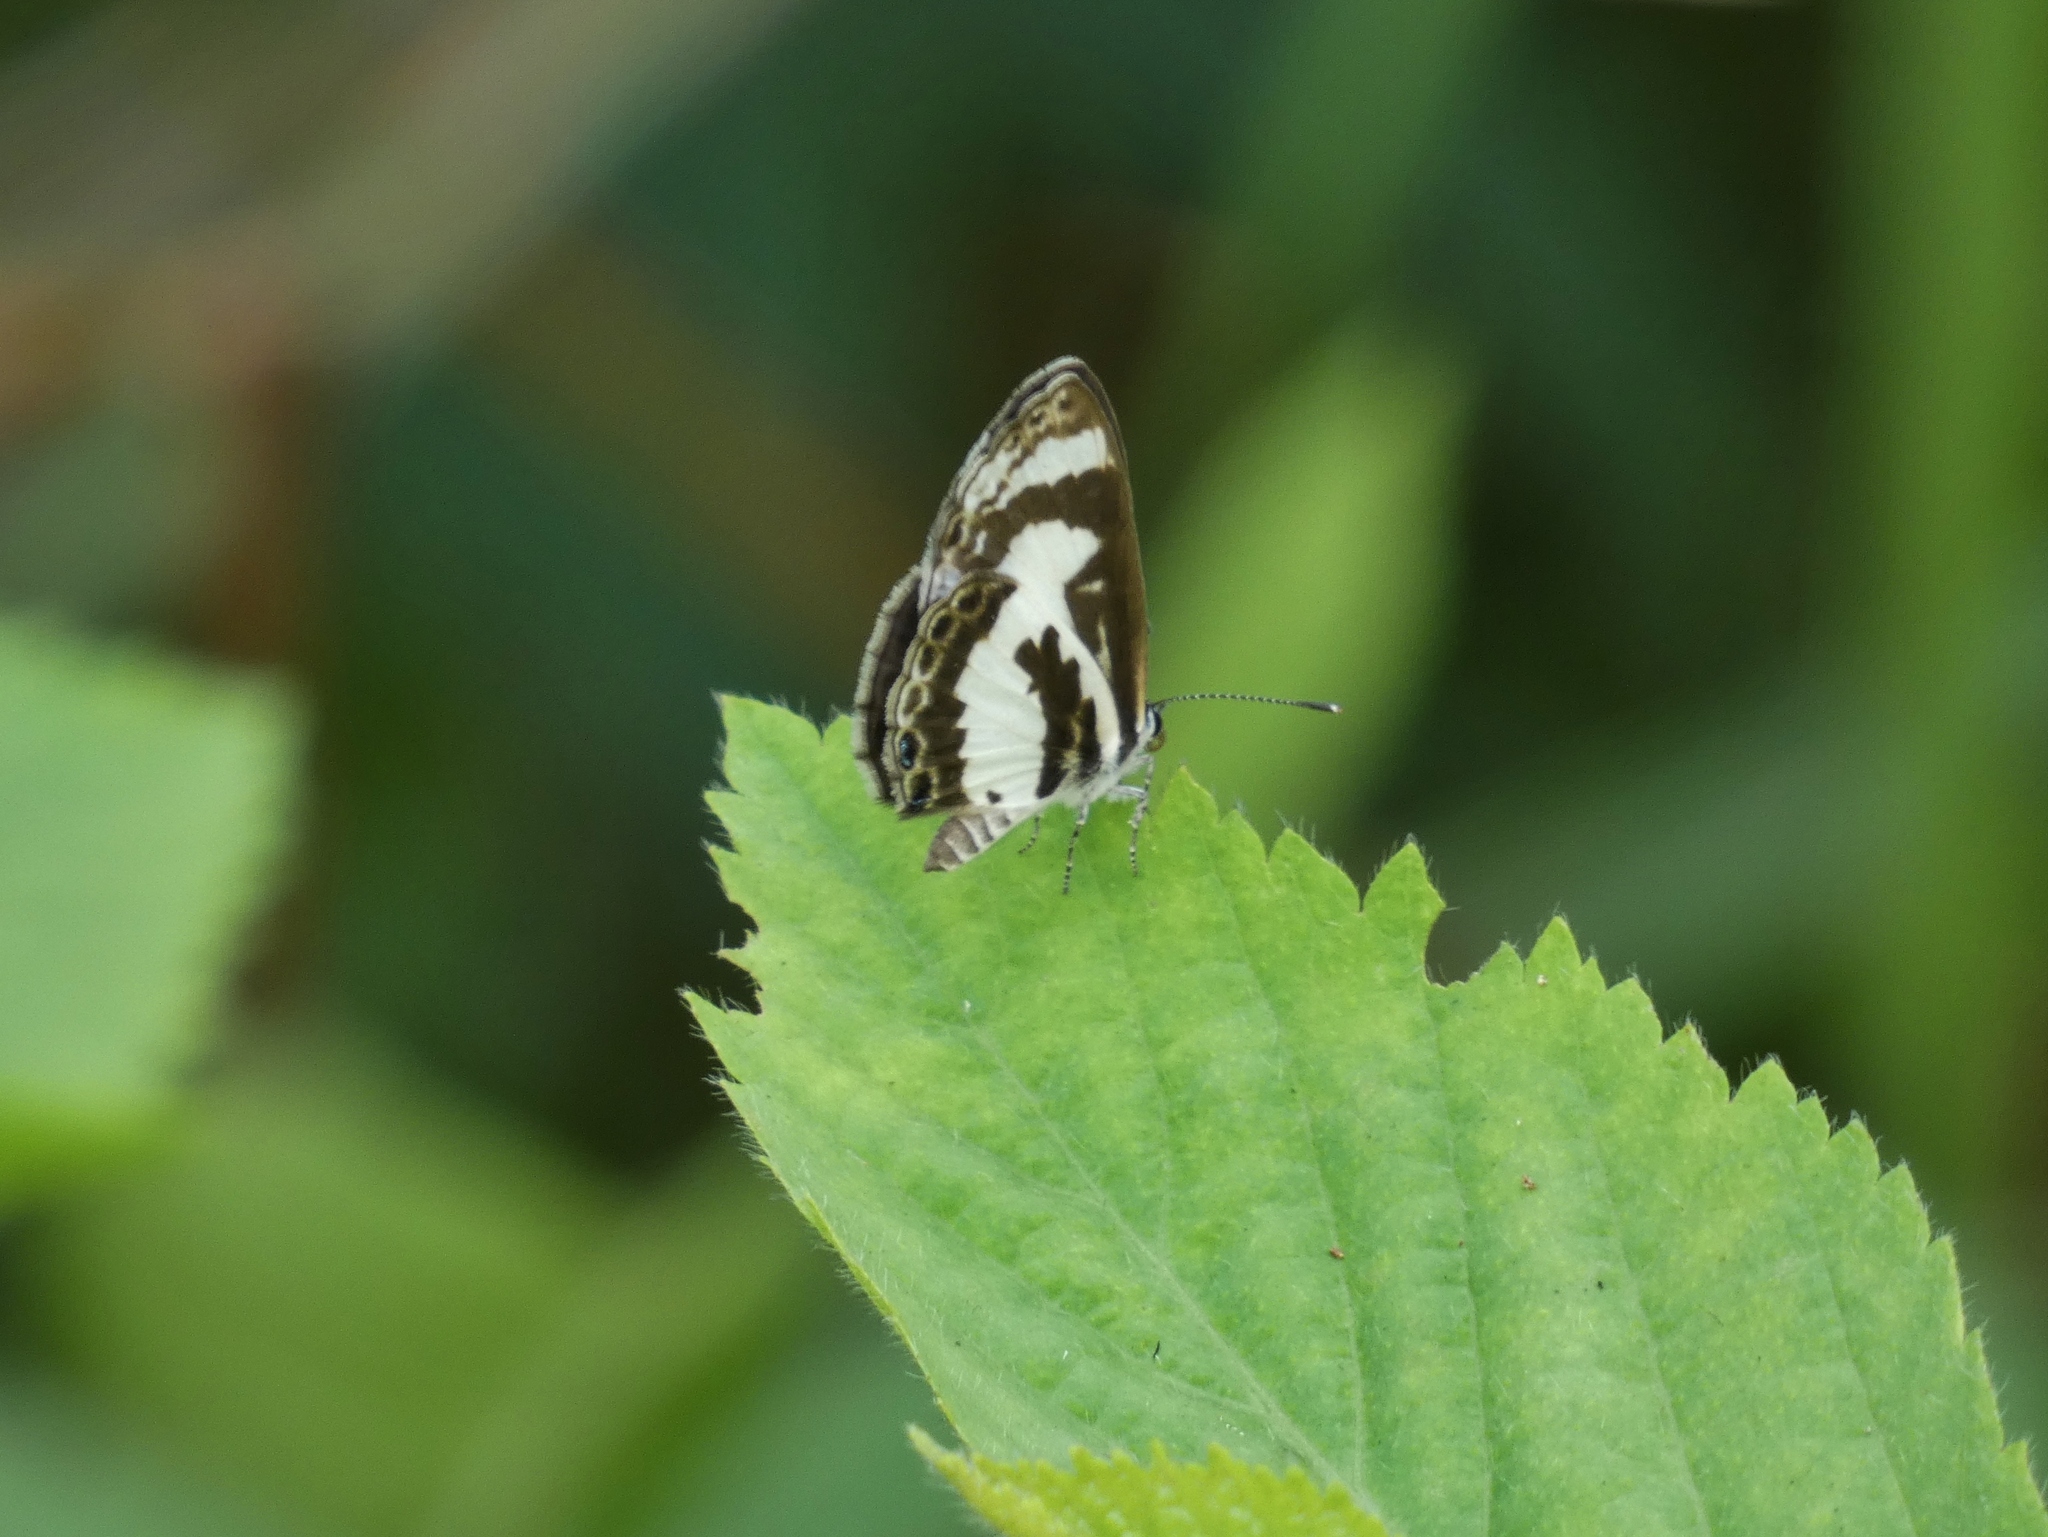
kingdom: Animalia
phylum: Arthropoda
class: Insecta
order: Lepidoptera
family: Lycaenidae
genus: Azanus
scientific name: Azanus isis
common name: White-banded babul blue
